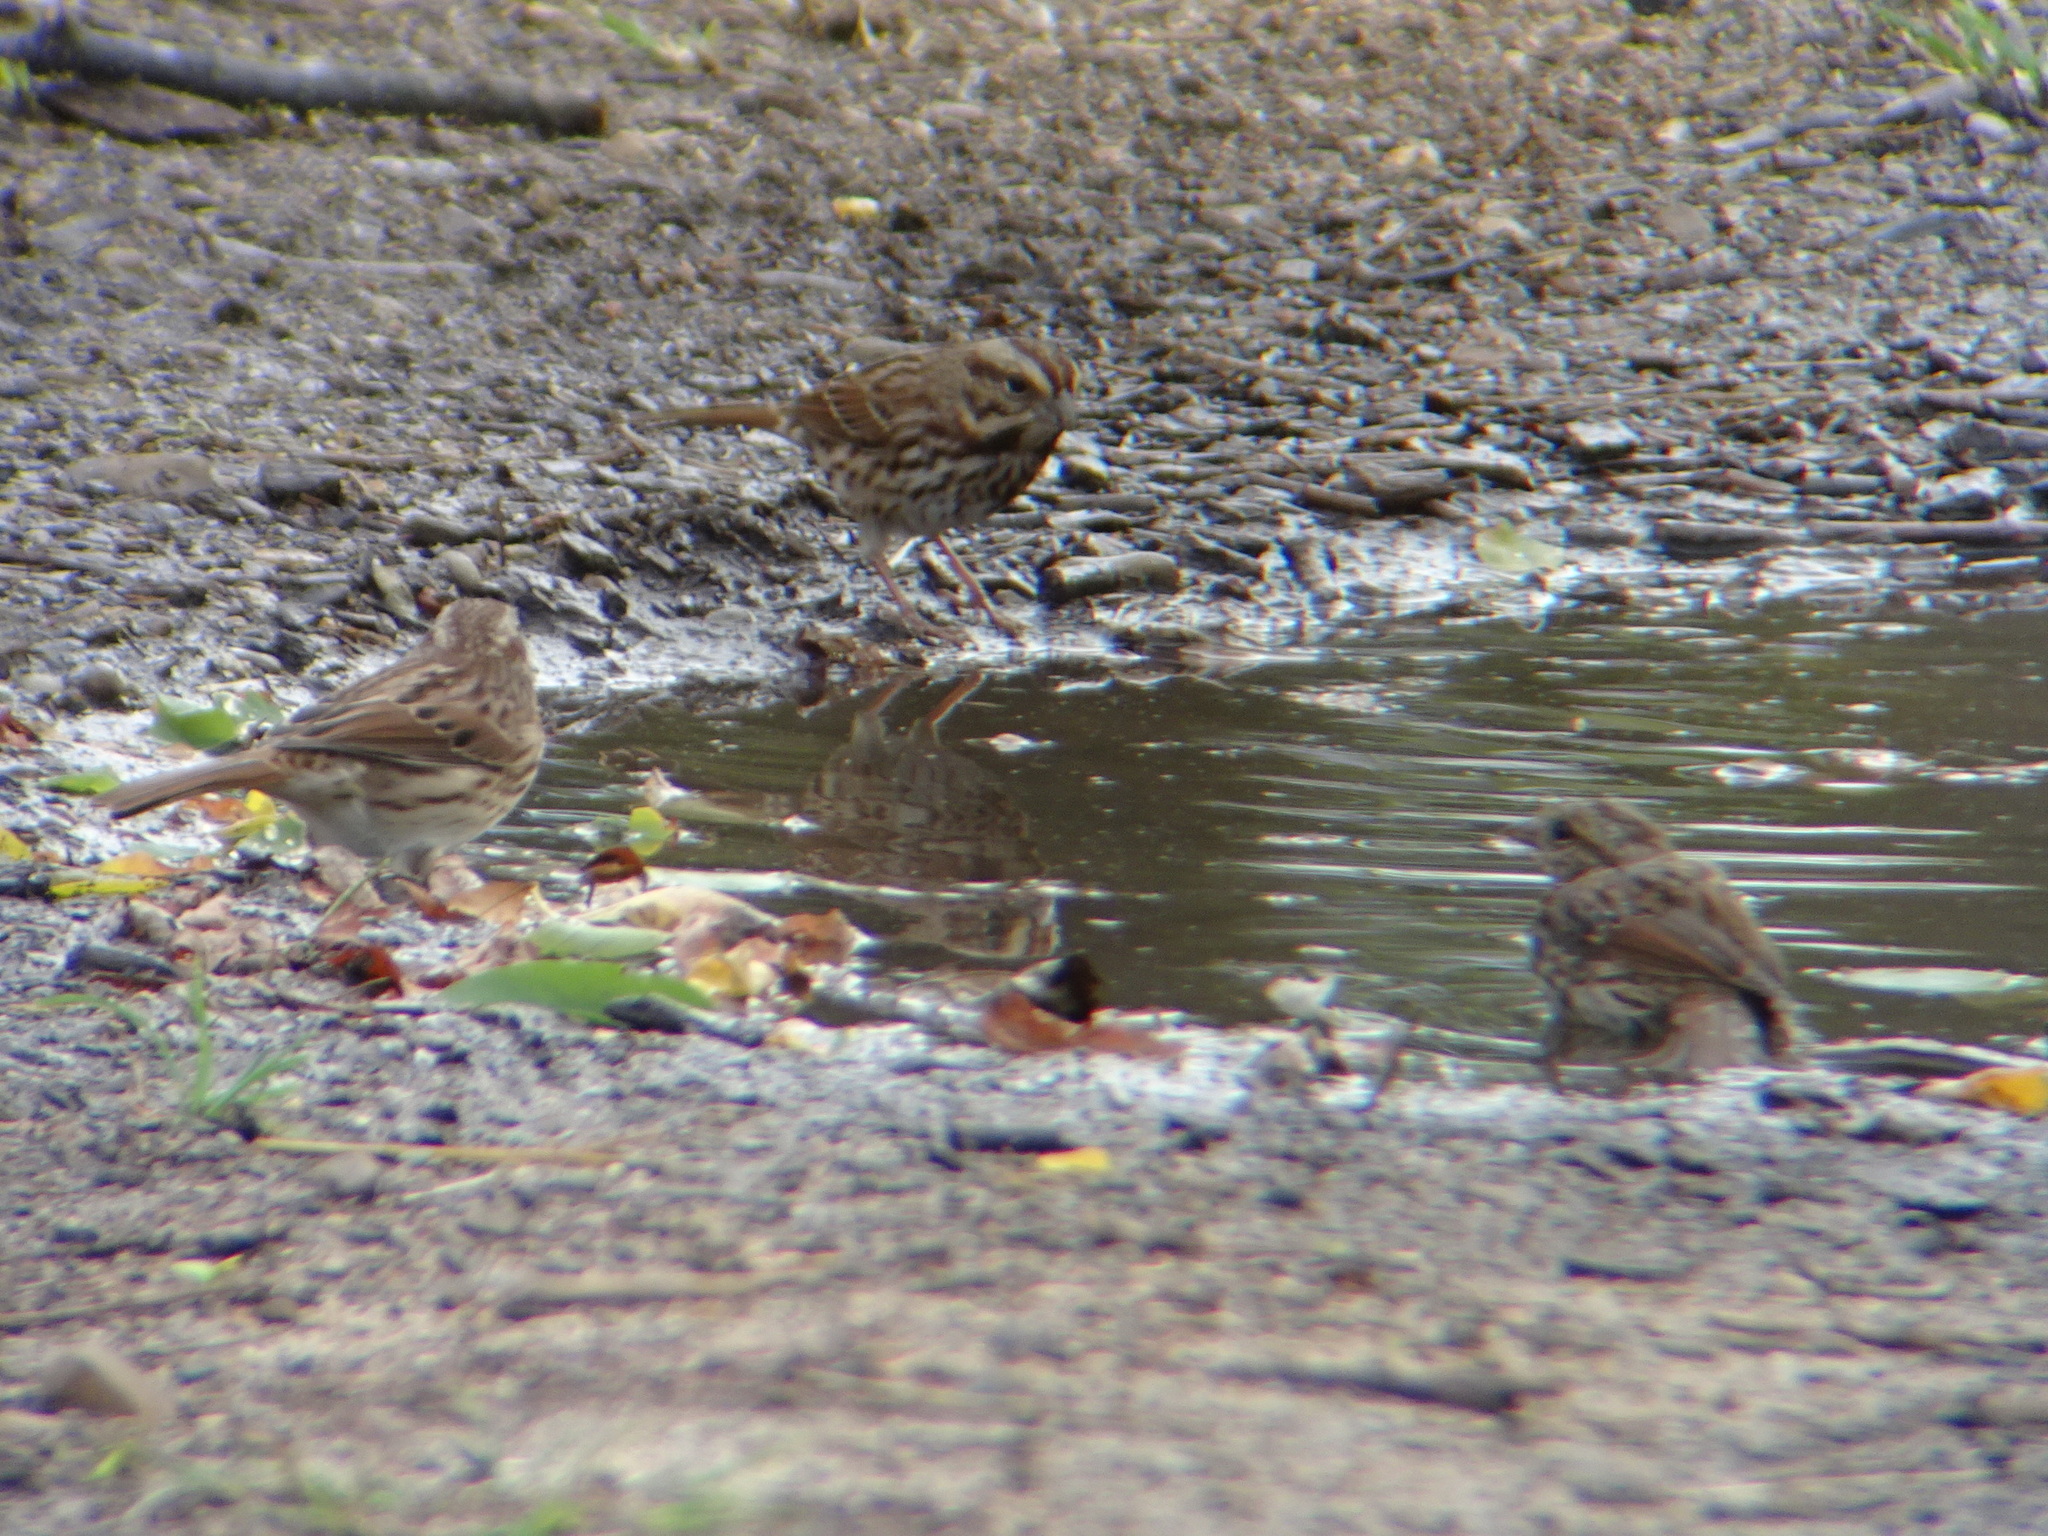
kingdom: Animalia
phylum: Chordata
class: Aves
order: Passeriformes
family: Passerellidae
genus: Melospiza
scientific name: Melospiza melodia
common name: Song sparrow
